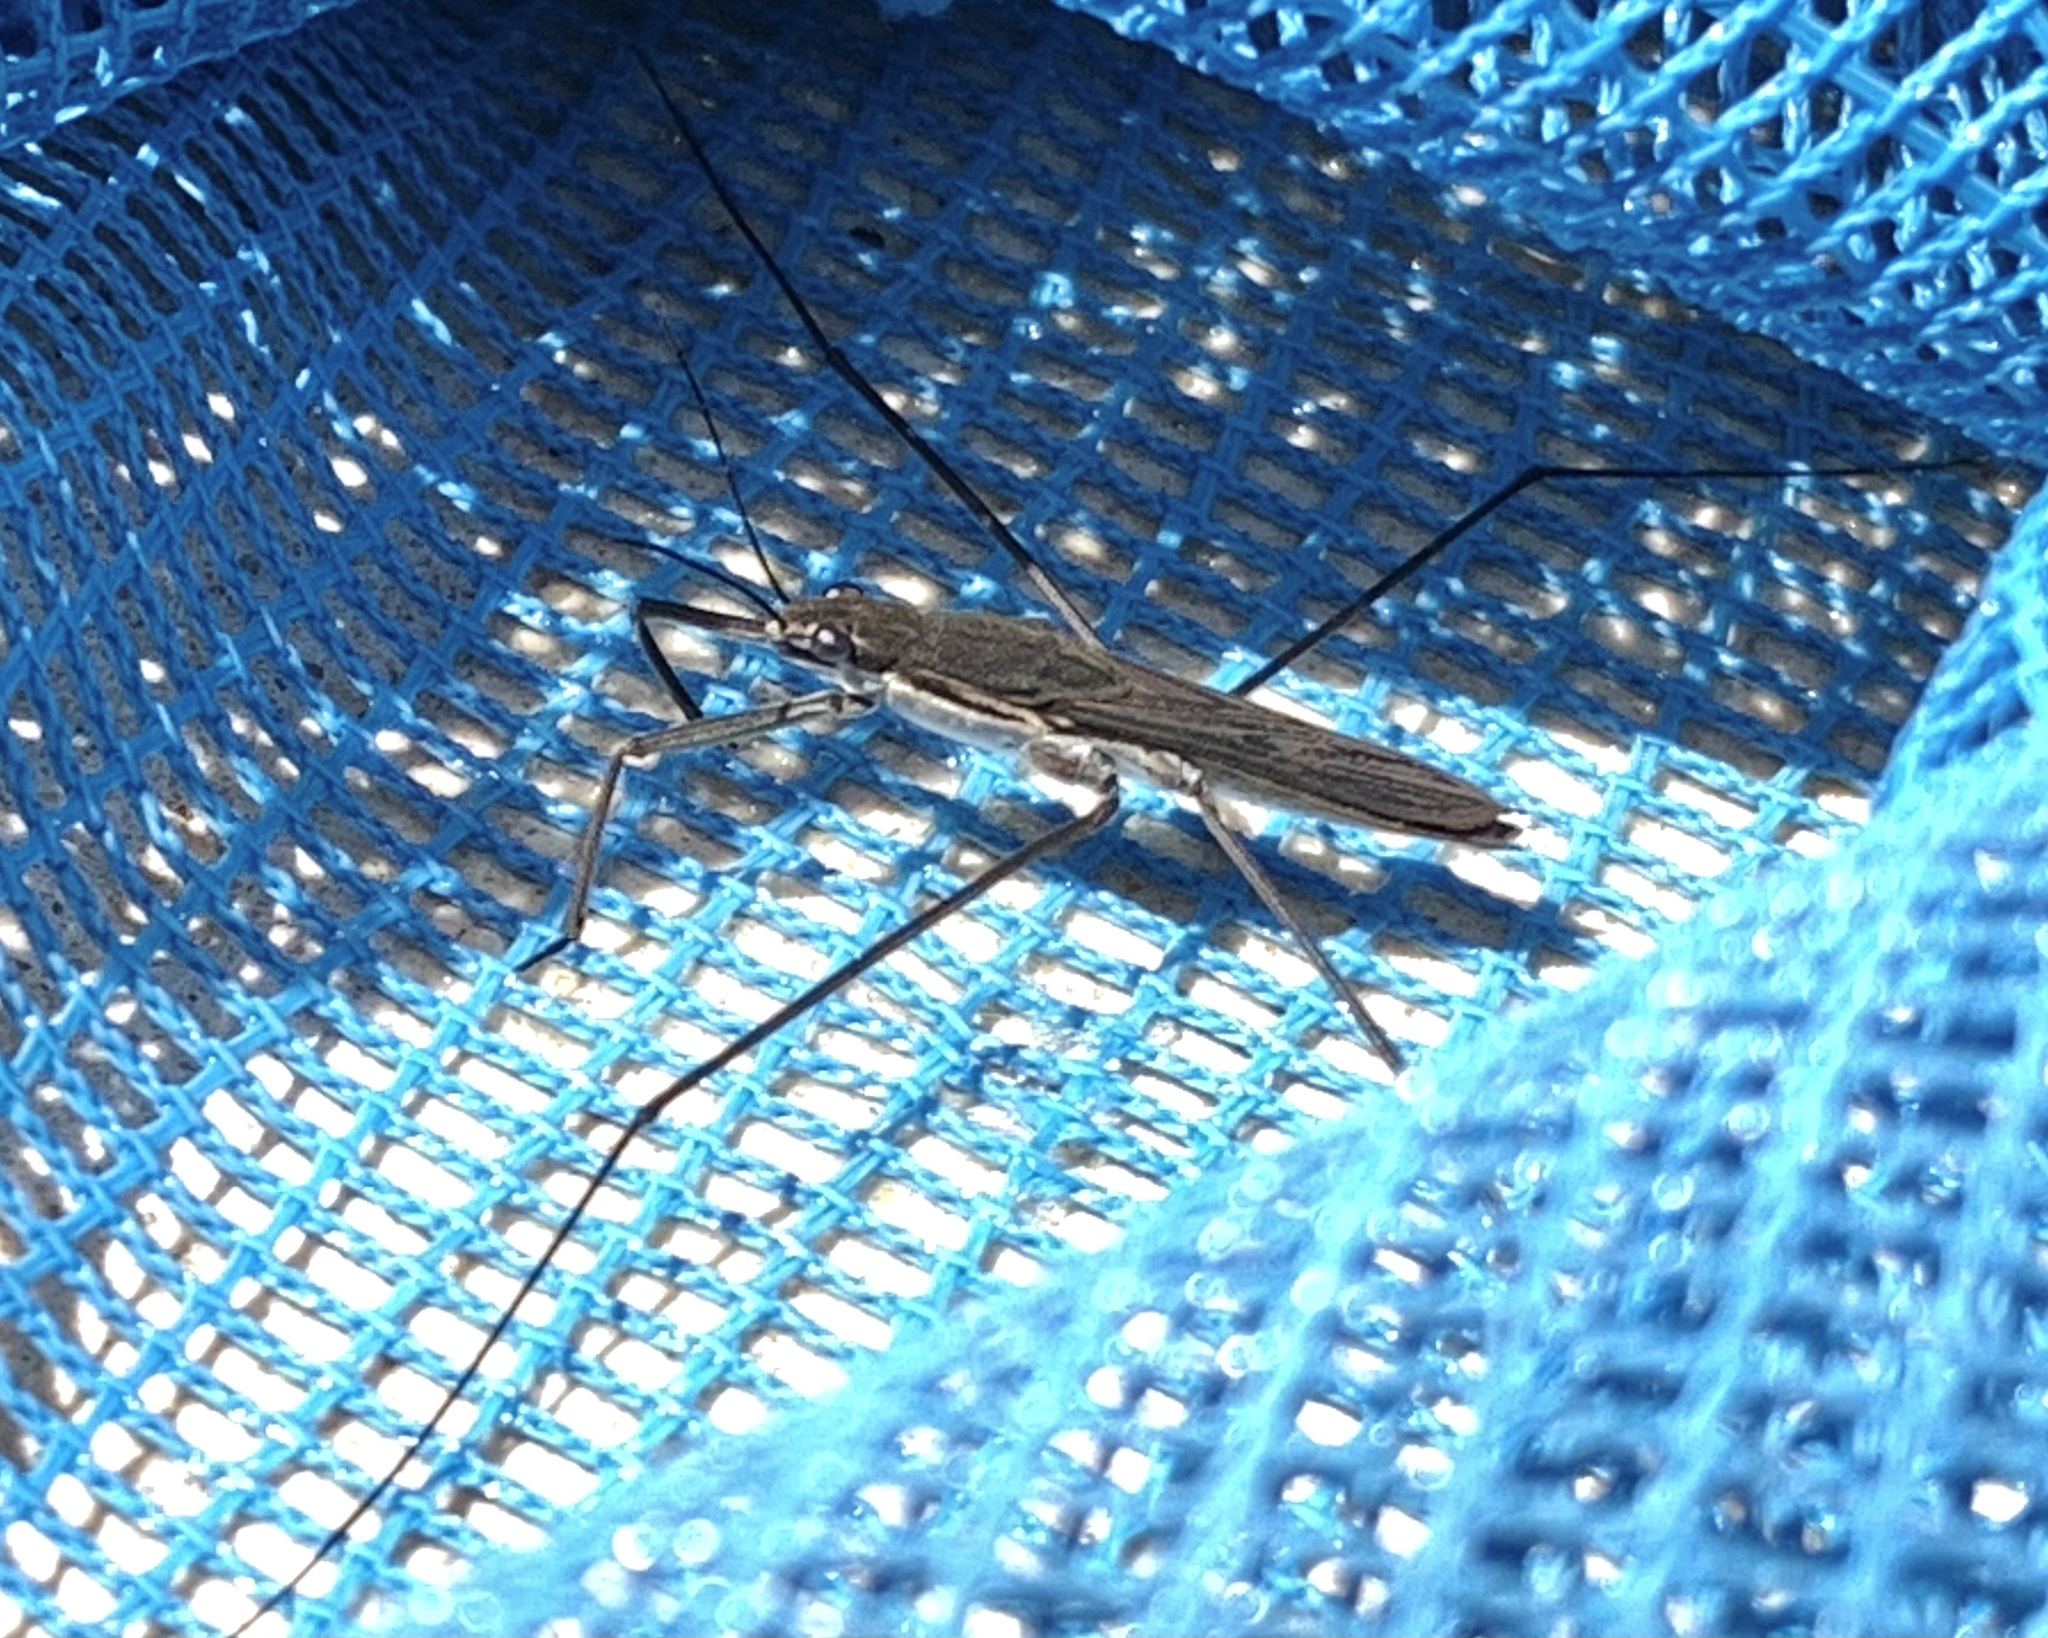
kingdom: Animalia
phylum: Arthropoda
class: Insecta
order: Hemiptera
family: Gerridae
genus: Aquarius
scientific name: Aquarius paludum
